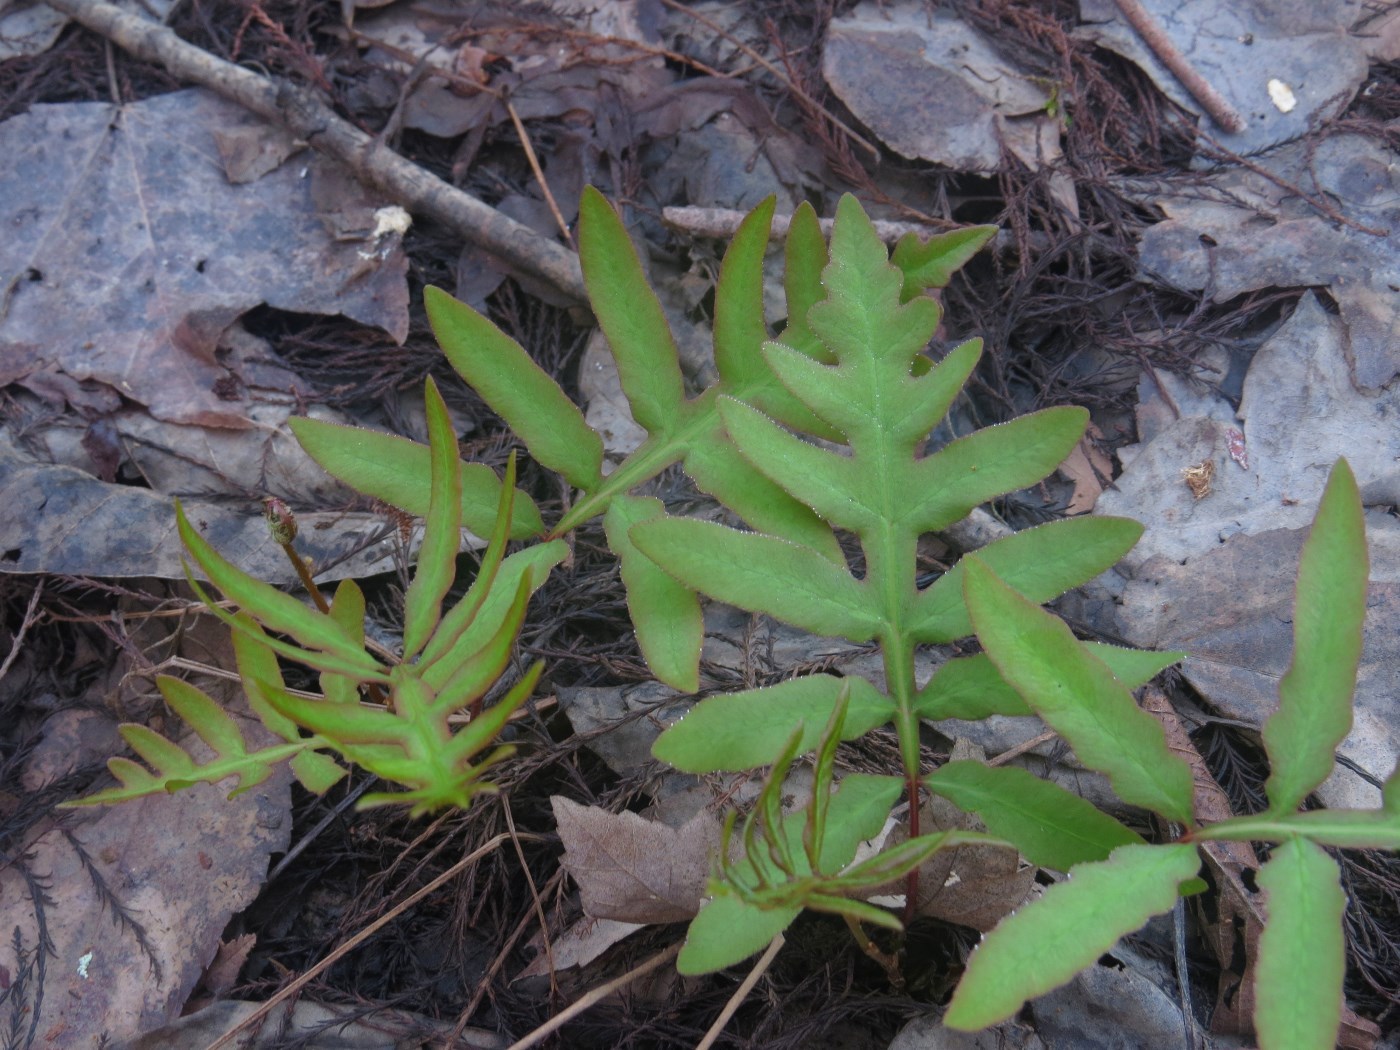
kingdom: Plantae
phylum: Tracheophyta
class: Polypodiopsida
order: Polypodiales
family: Onocleaceae
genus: Onoclea
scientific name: Onoclea sensibilis
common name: Sensitive fern
